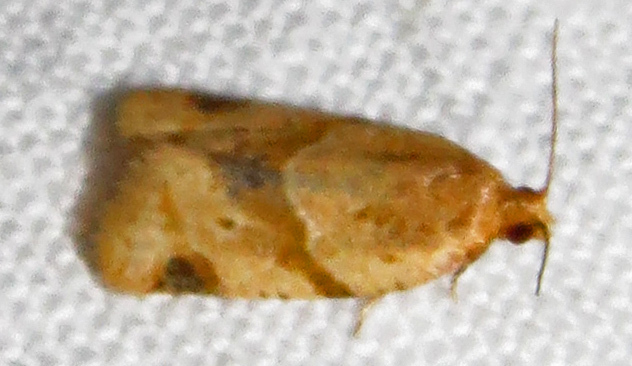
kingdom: Animalia
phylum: Arthropoda
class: Insecta
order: Lepidoptera
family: Tortricidae
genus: Clepsis
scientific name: Clepsis peritana
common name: Garden tortrix
